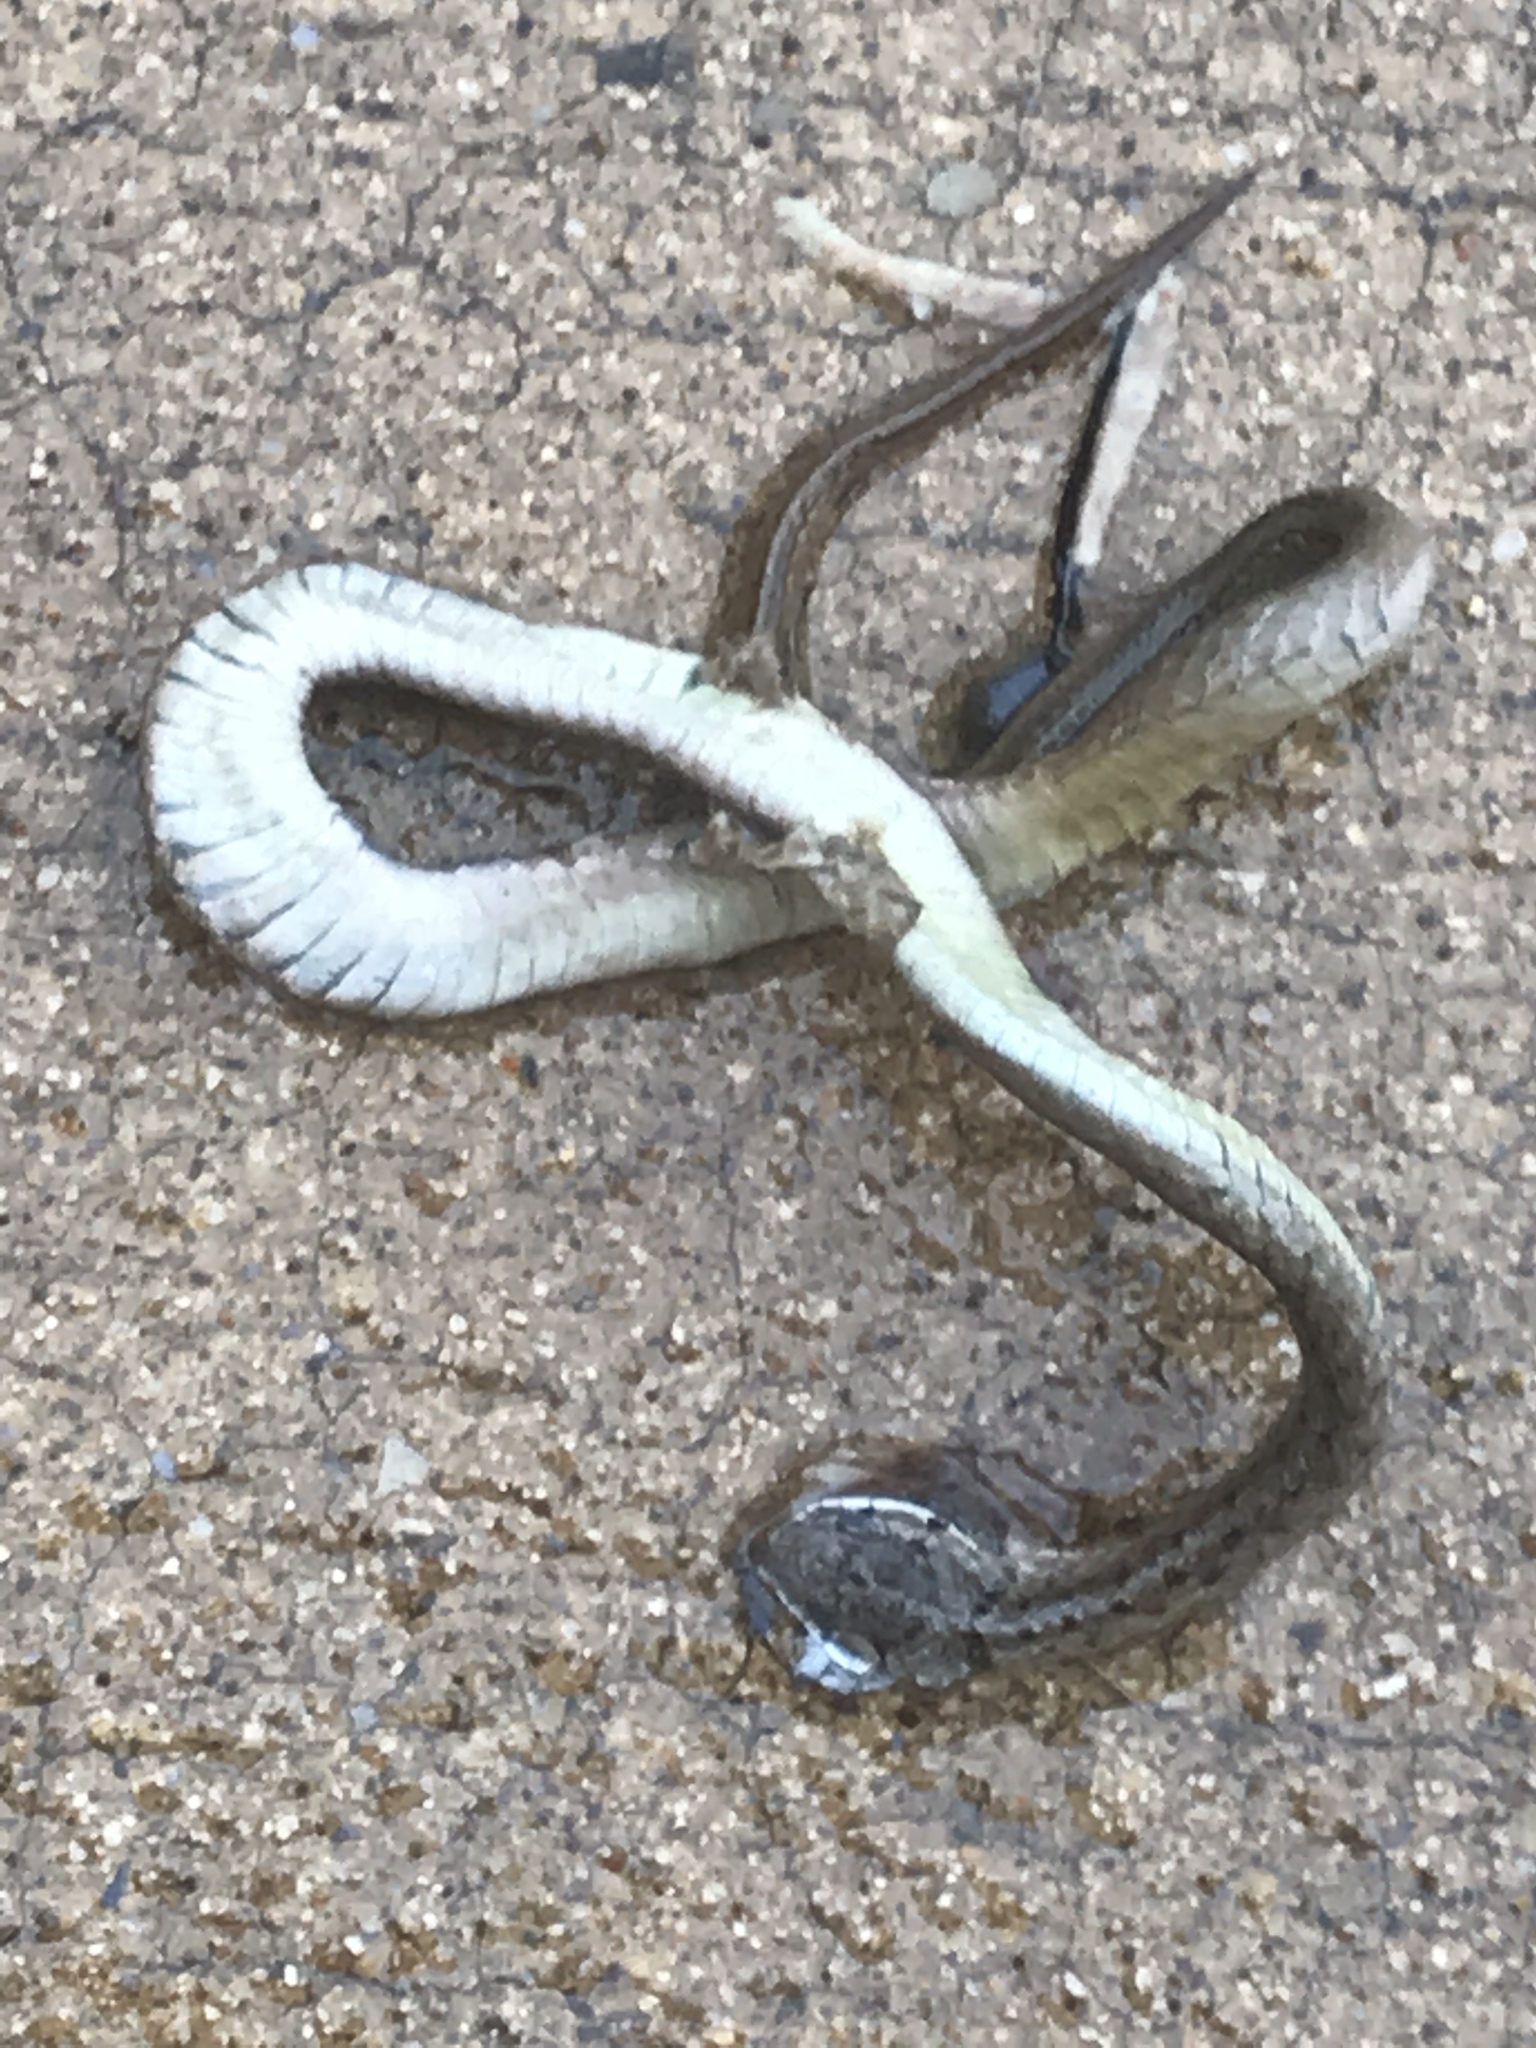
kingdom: Animalia
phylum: Chordata
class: Squamata
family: Colubridae
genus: Storeria
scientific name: Storeria dekayi
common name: (dekay’s) brown snake
